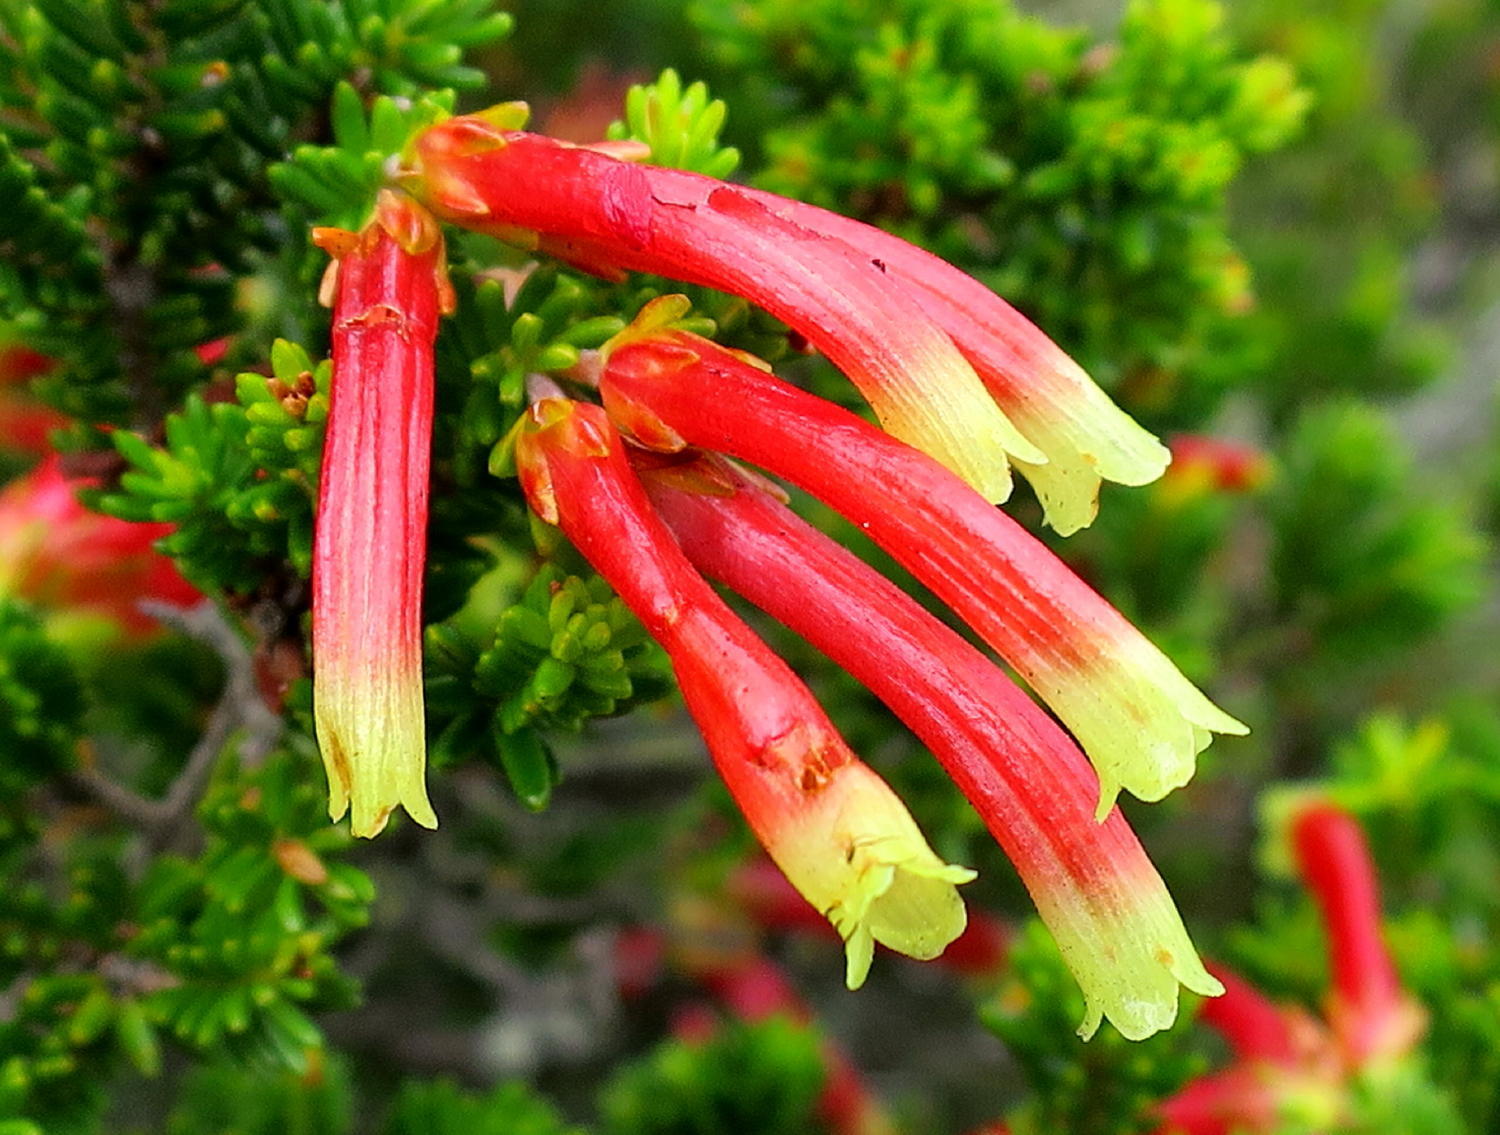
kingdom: Plantae
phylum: Tracheophyta
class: Magnoliopsida
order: Ericales
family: Ericaceae
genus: Erica
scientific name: Erica discolor
